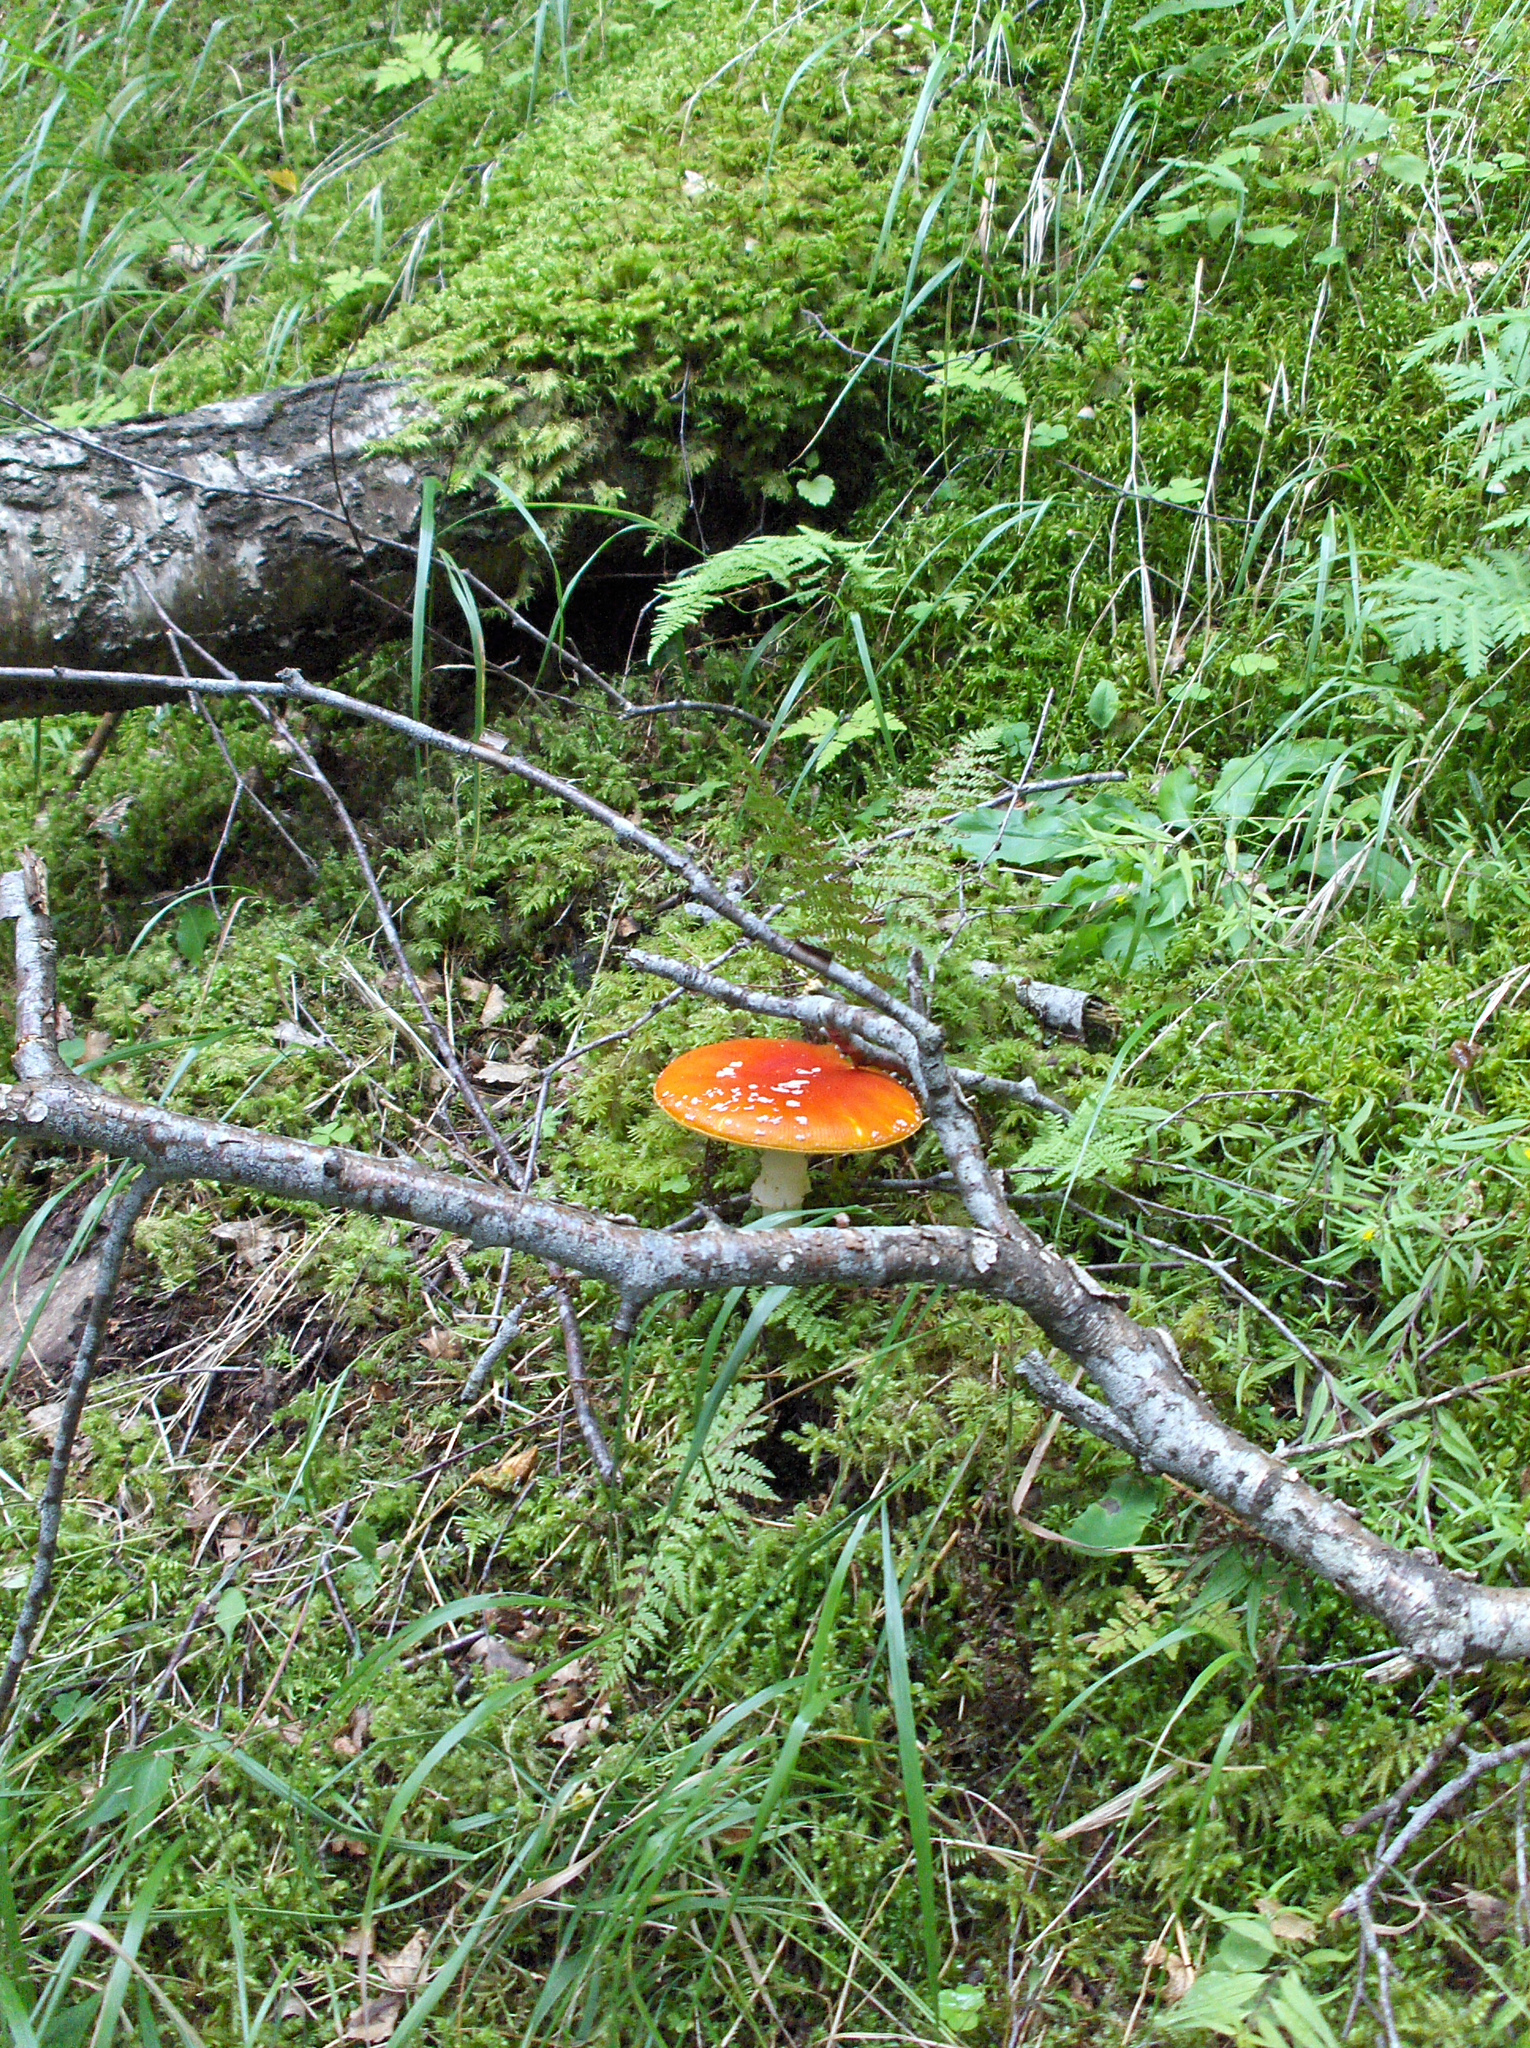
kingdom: Fungi
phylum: Basidiomycota
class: Agaricomycetes
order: Agaricales
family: Amanitaceae
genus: Amanita
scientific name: Amanita muscaria
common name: Fly agaric
